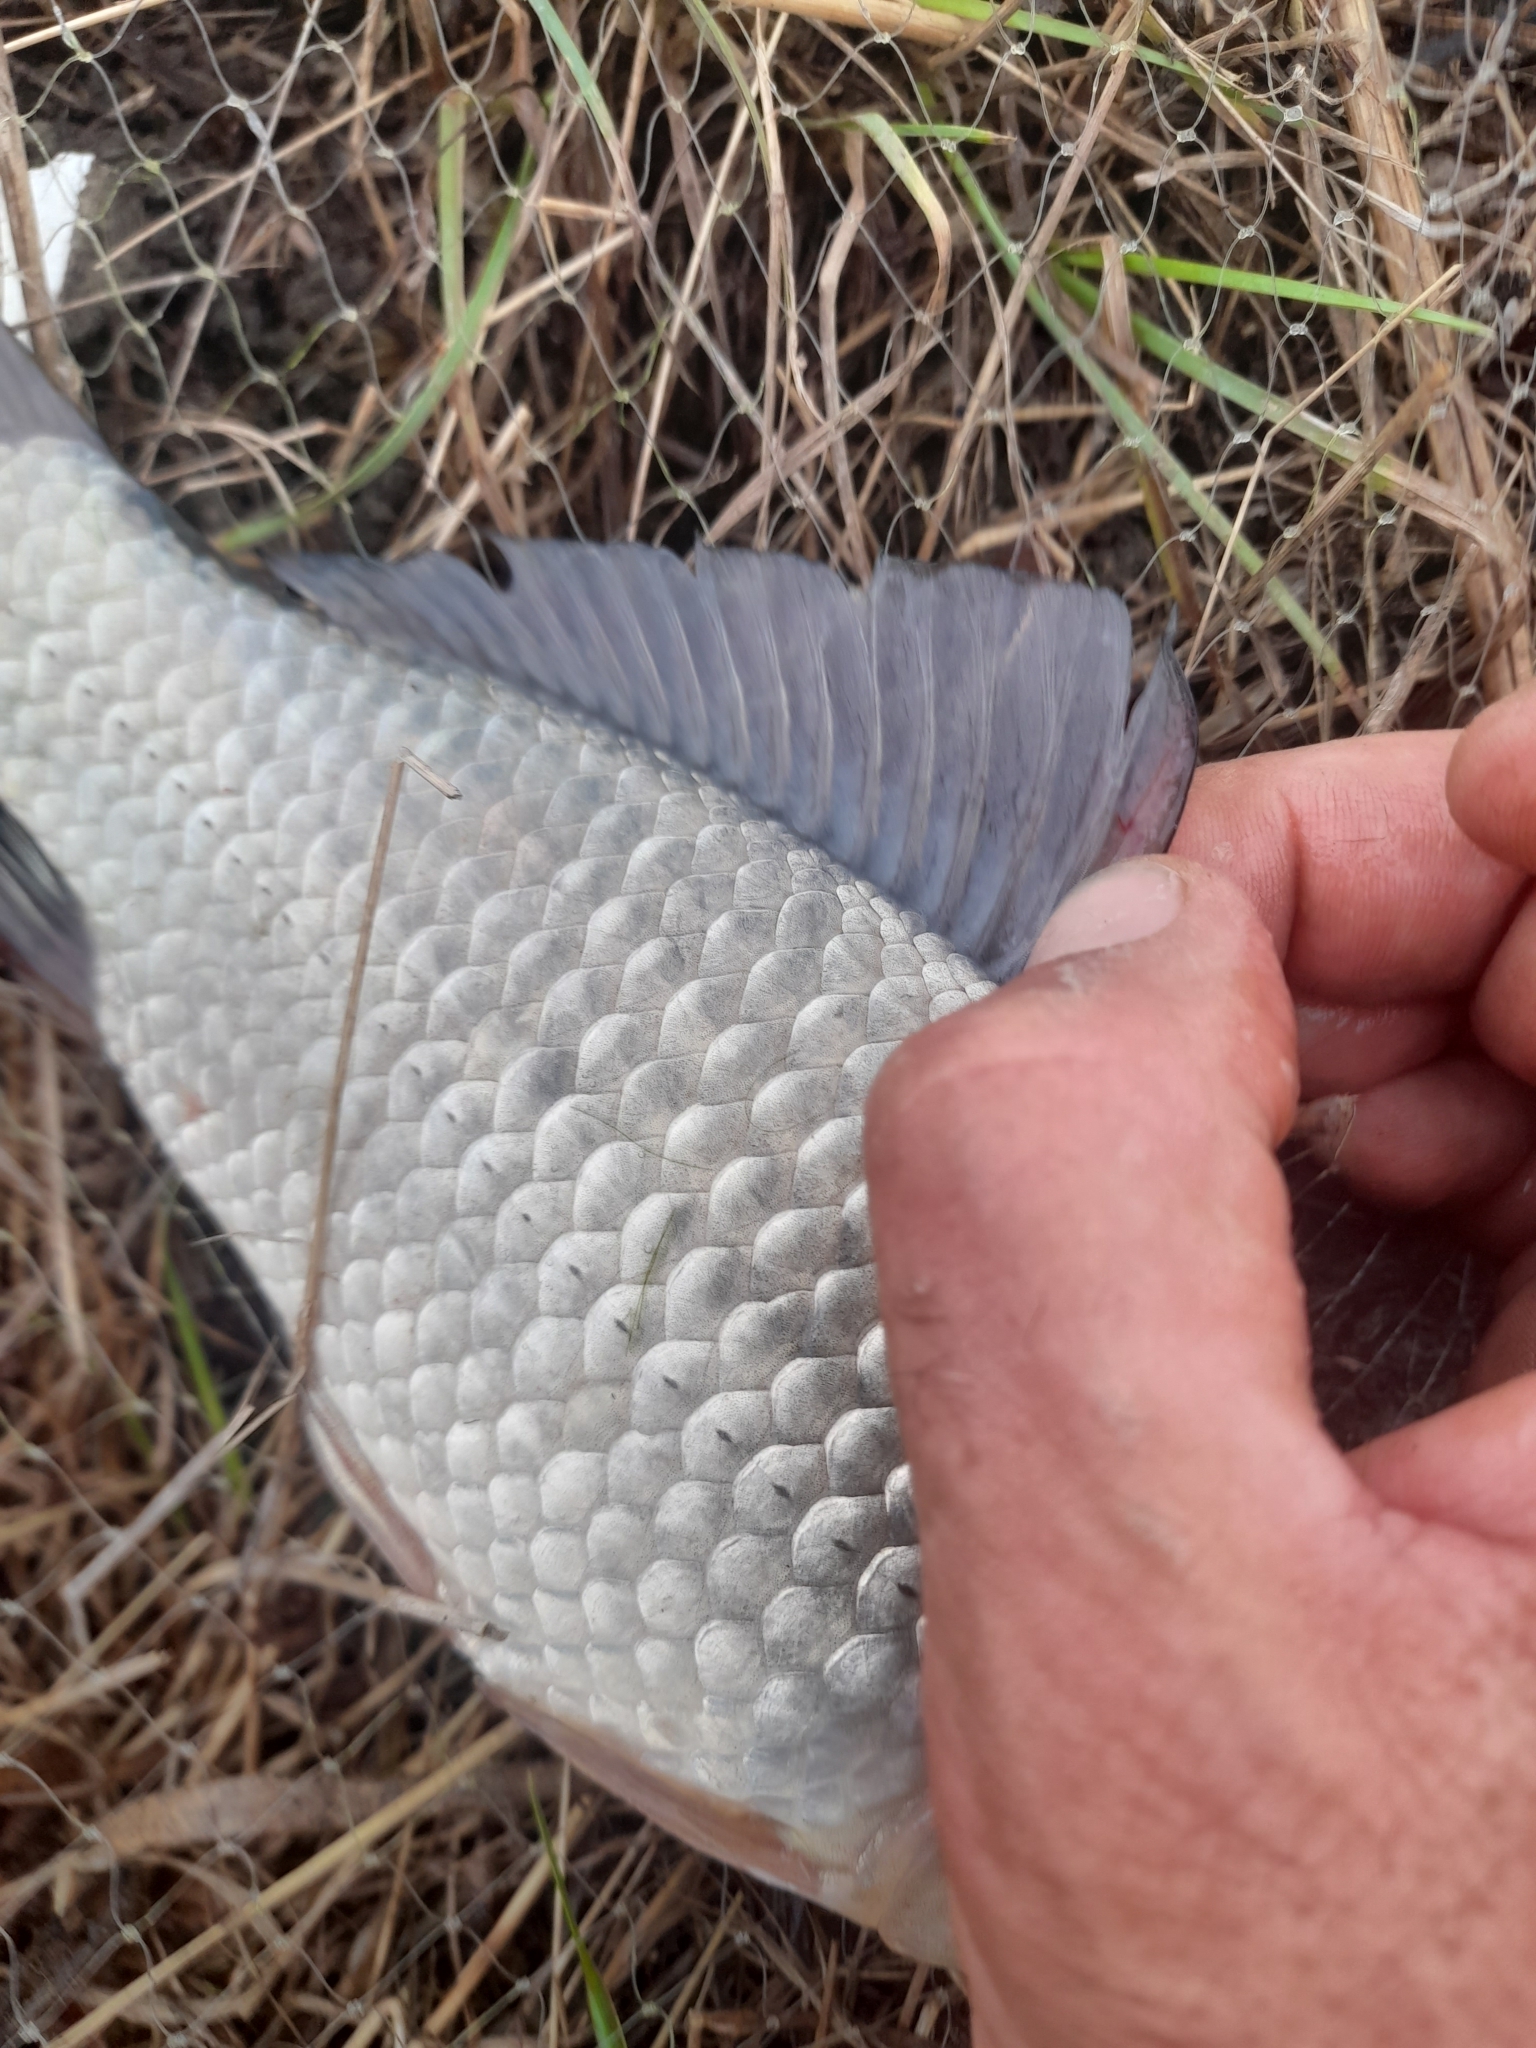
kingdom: Animalia
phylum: Chordata
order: Cypriniformes
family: Cyprinidae
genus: Carassius
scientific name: Carassius gibelio
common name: Prussian carp
